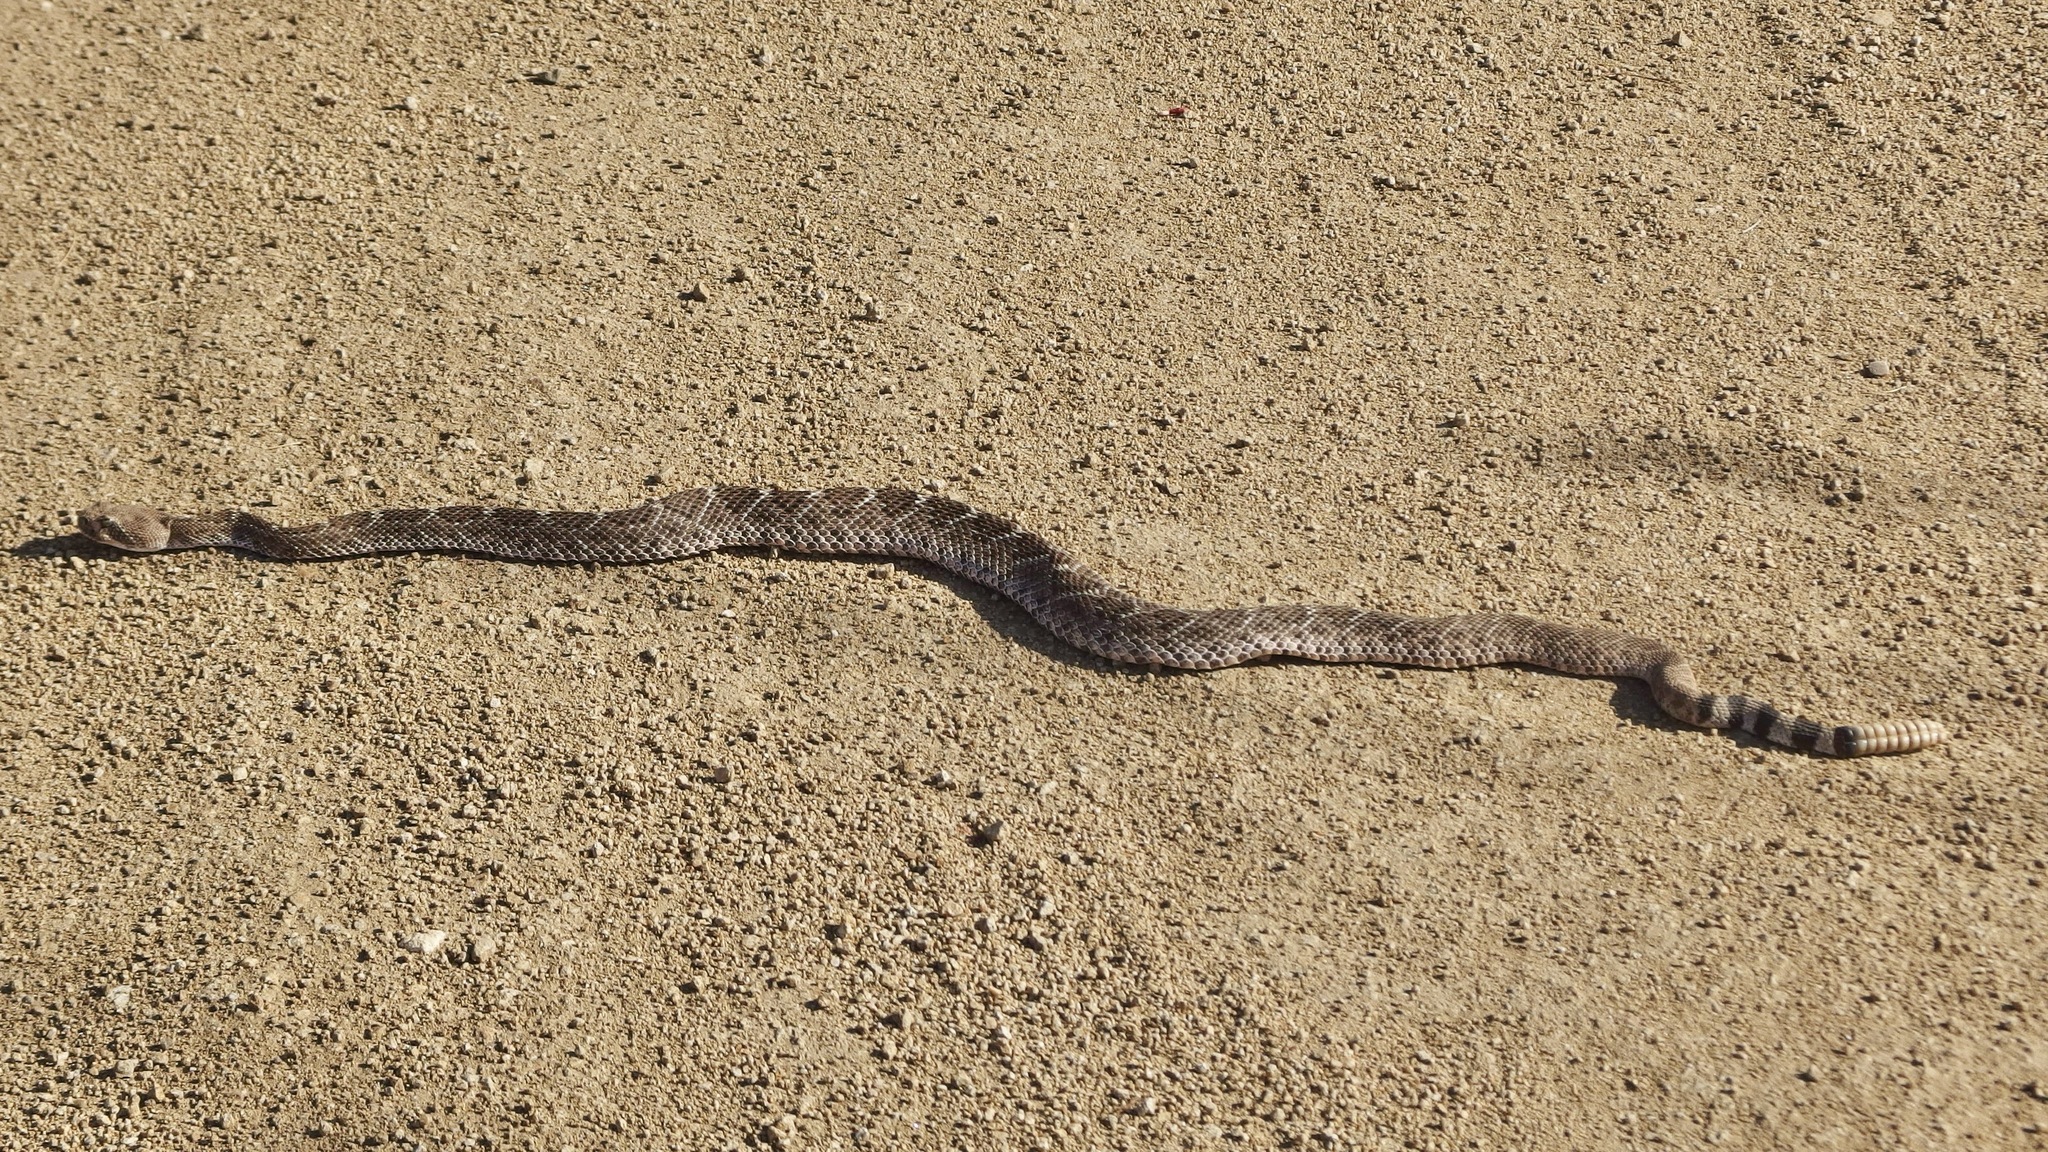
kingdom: Animalia
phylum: Chordata
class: Squamata
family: Viperidae
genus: Crotalus
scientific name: Crotalus atrox
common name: Western diamond-backed rattlesnake
